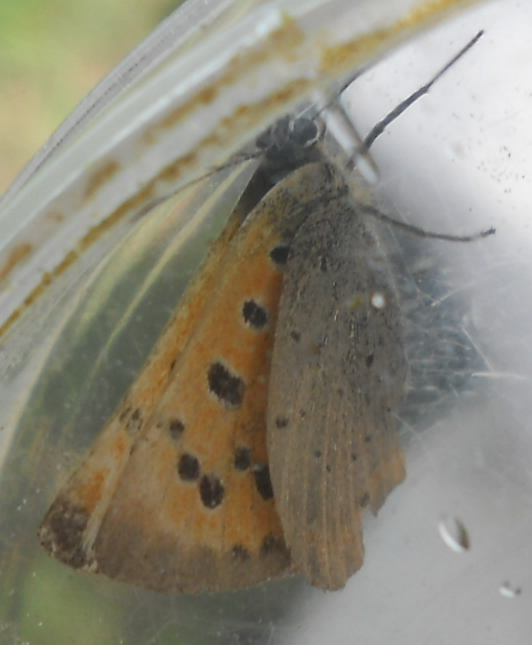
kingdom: Animalia
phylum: Arthropoda
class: Insecta
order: Lepidoptera
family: Lycaenidae
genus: Lycaena
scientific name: Lycaena phlaeas
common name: Small copper
